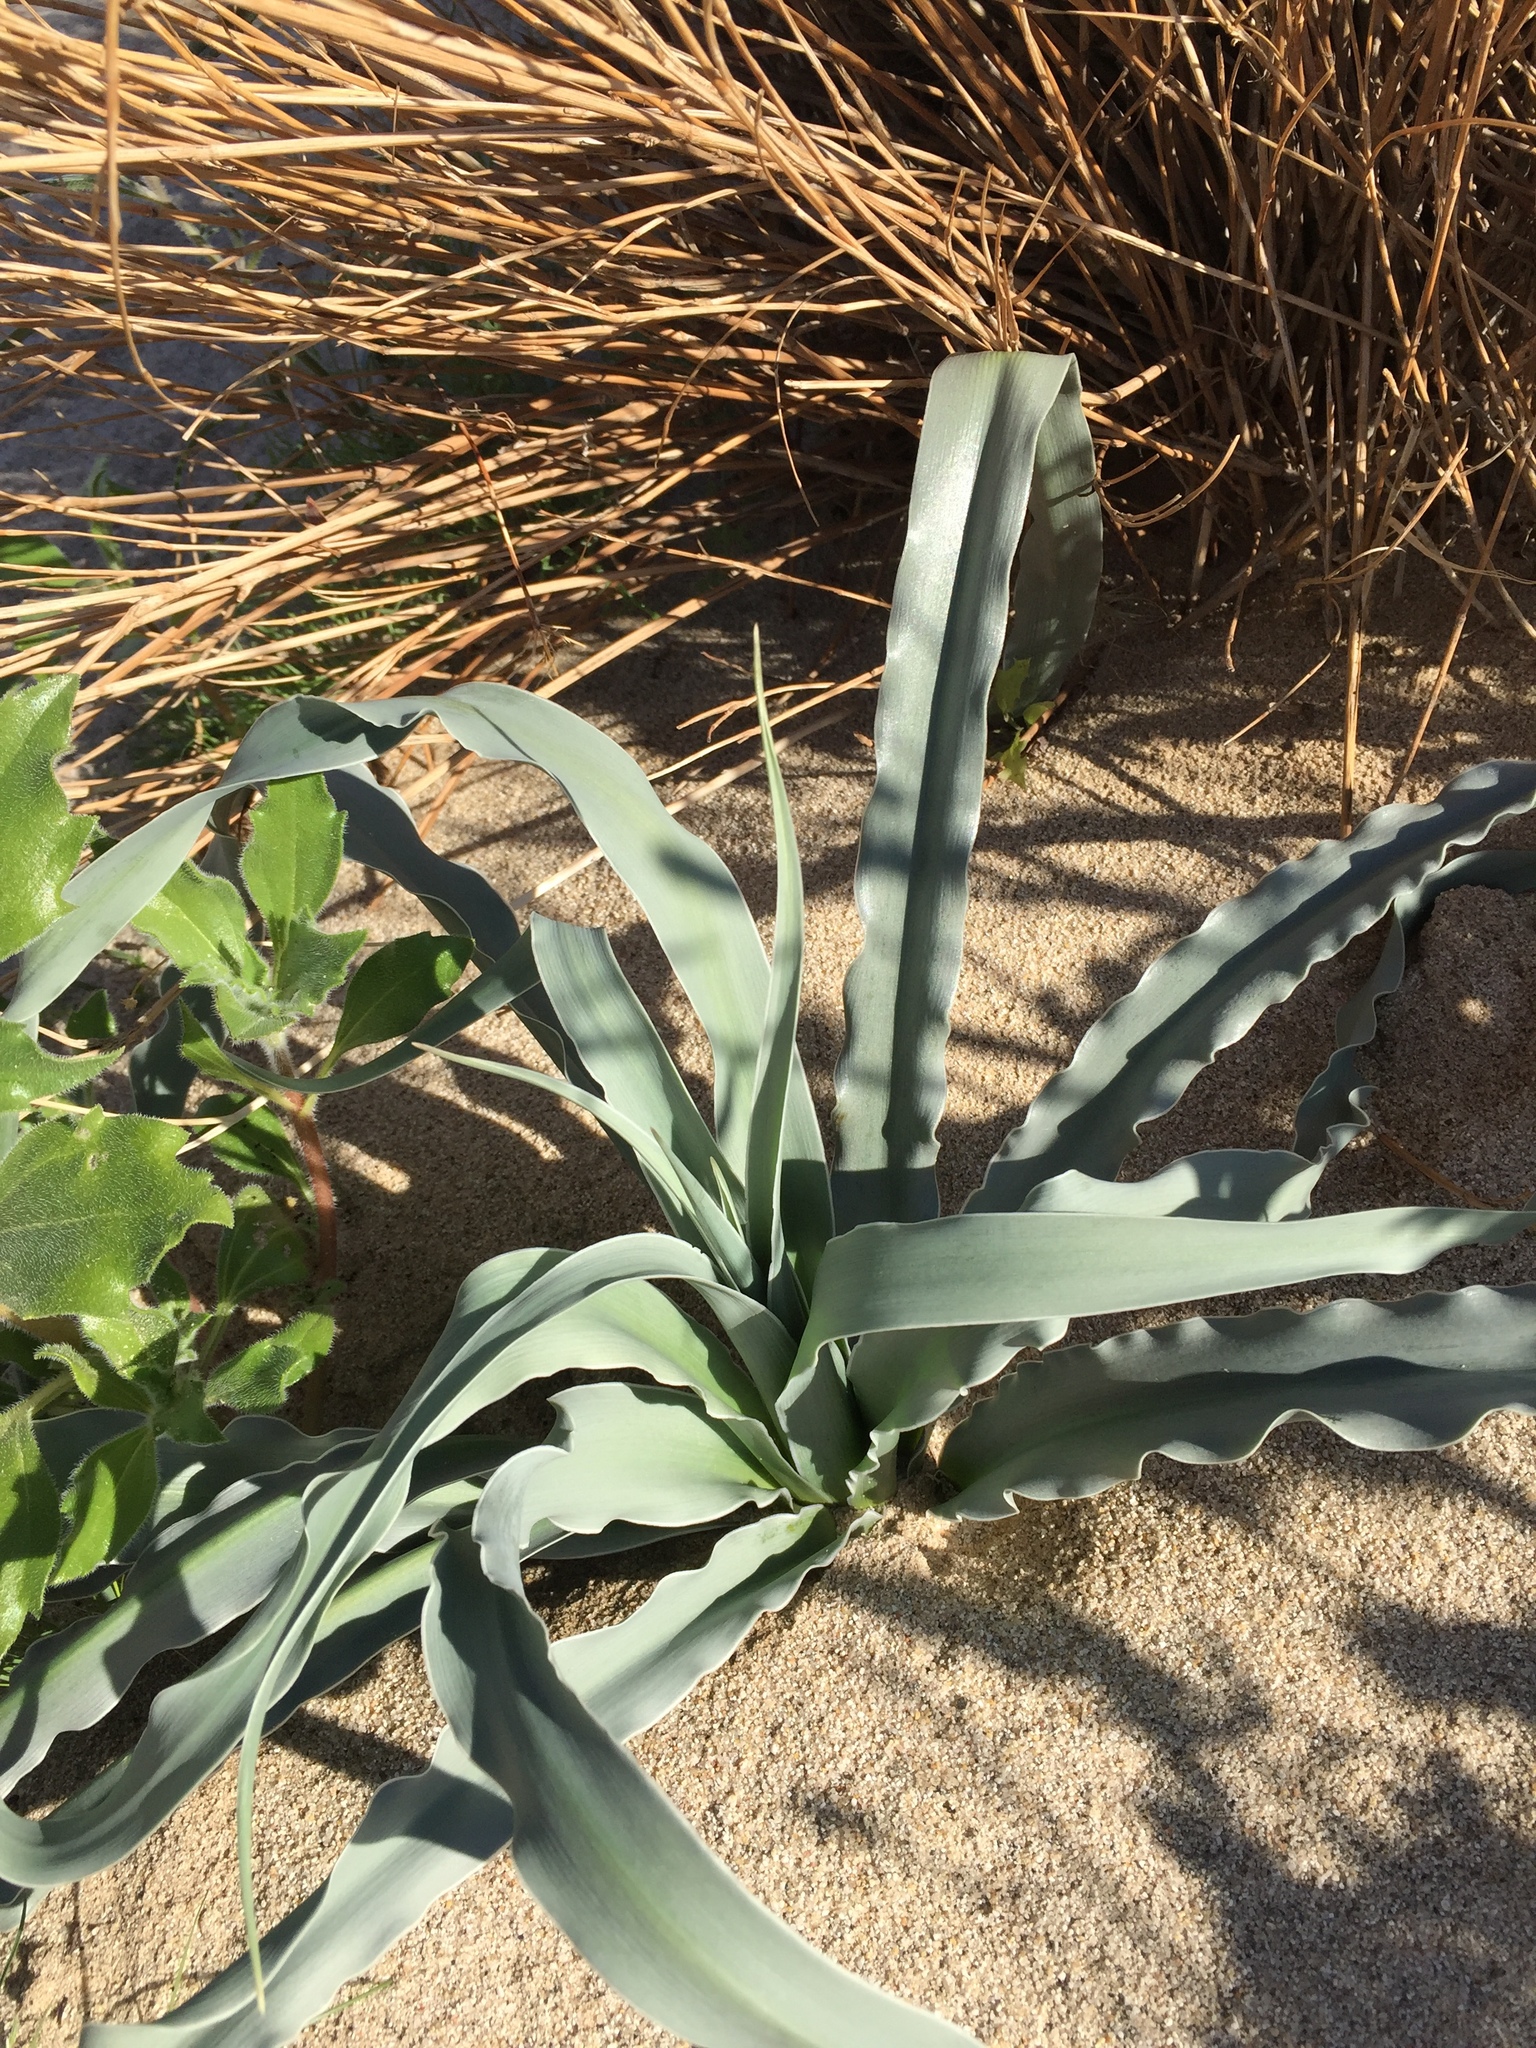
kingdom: Plantae
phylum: Tracheophyta
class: Liliopsida
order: Asparagales
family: Asparagaceae
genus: Hesperocallis
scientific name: Hesperocallis undulata
